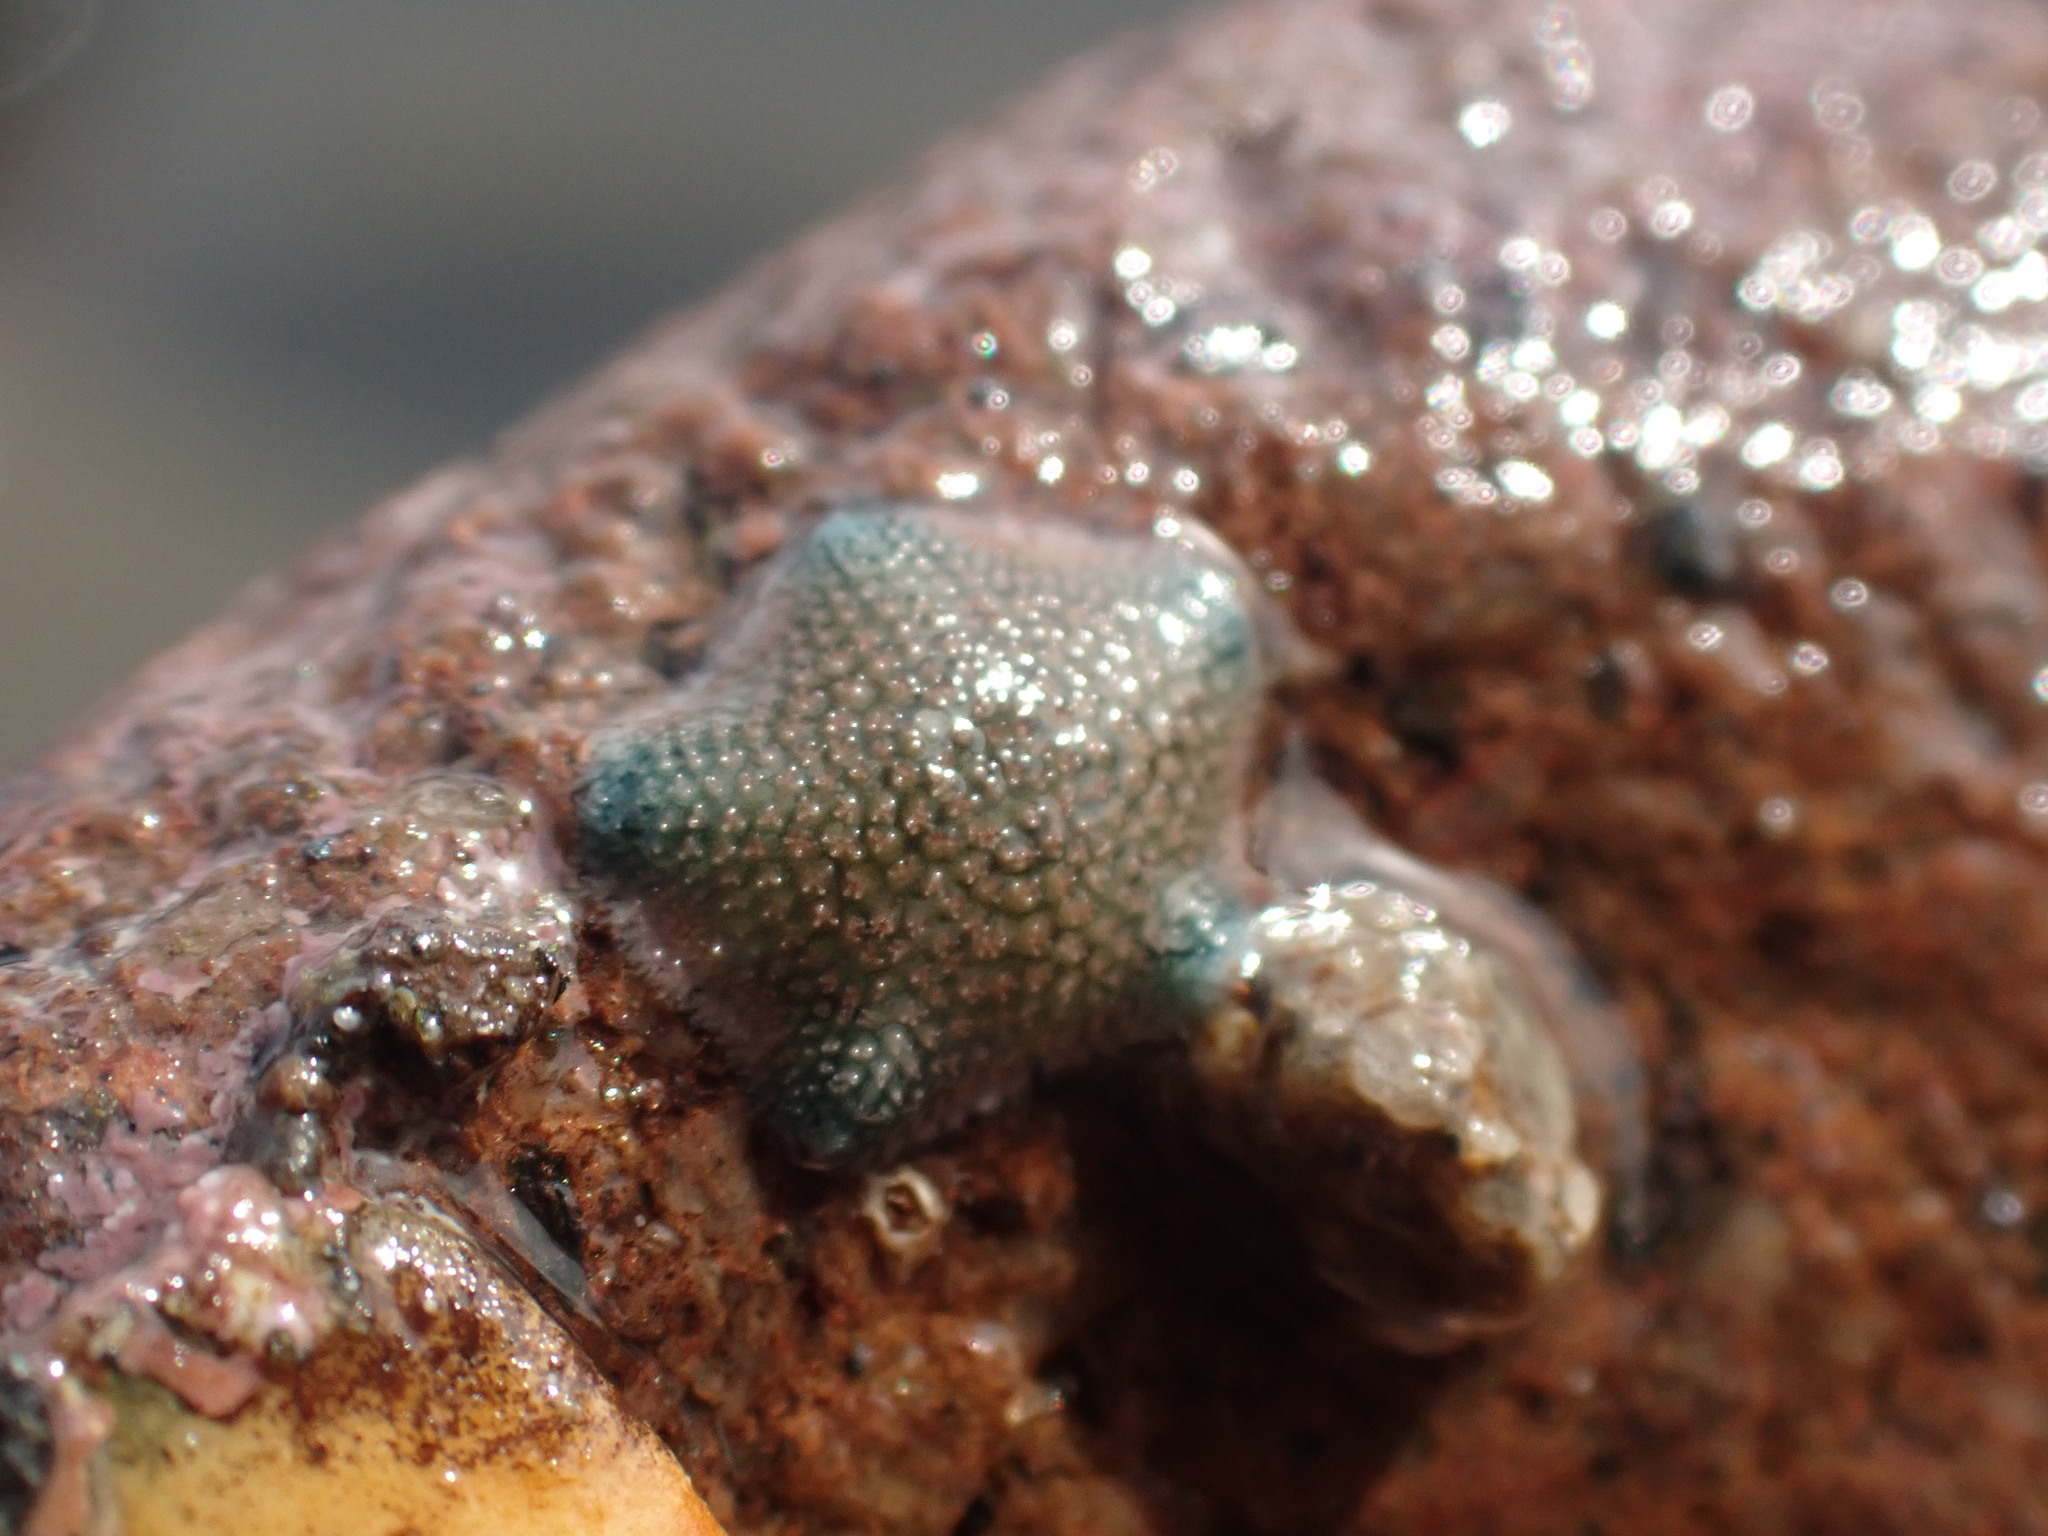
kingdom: Animalia
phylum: Echinodermata
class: Asteroidea
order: Valvatida
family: Asterinidae
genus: Patiriella
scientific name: Patiriella regularis
